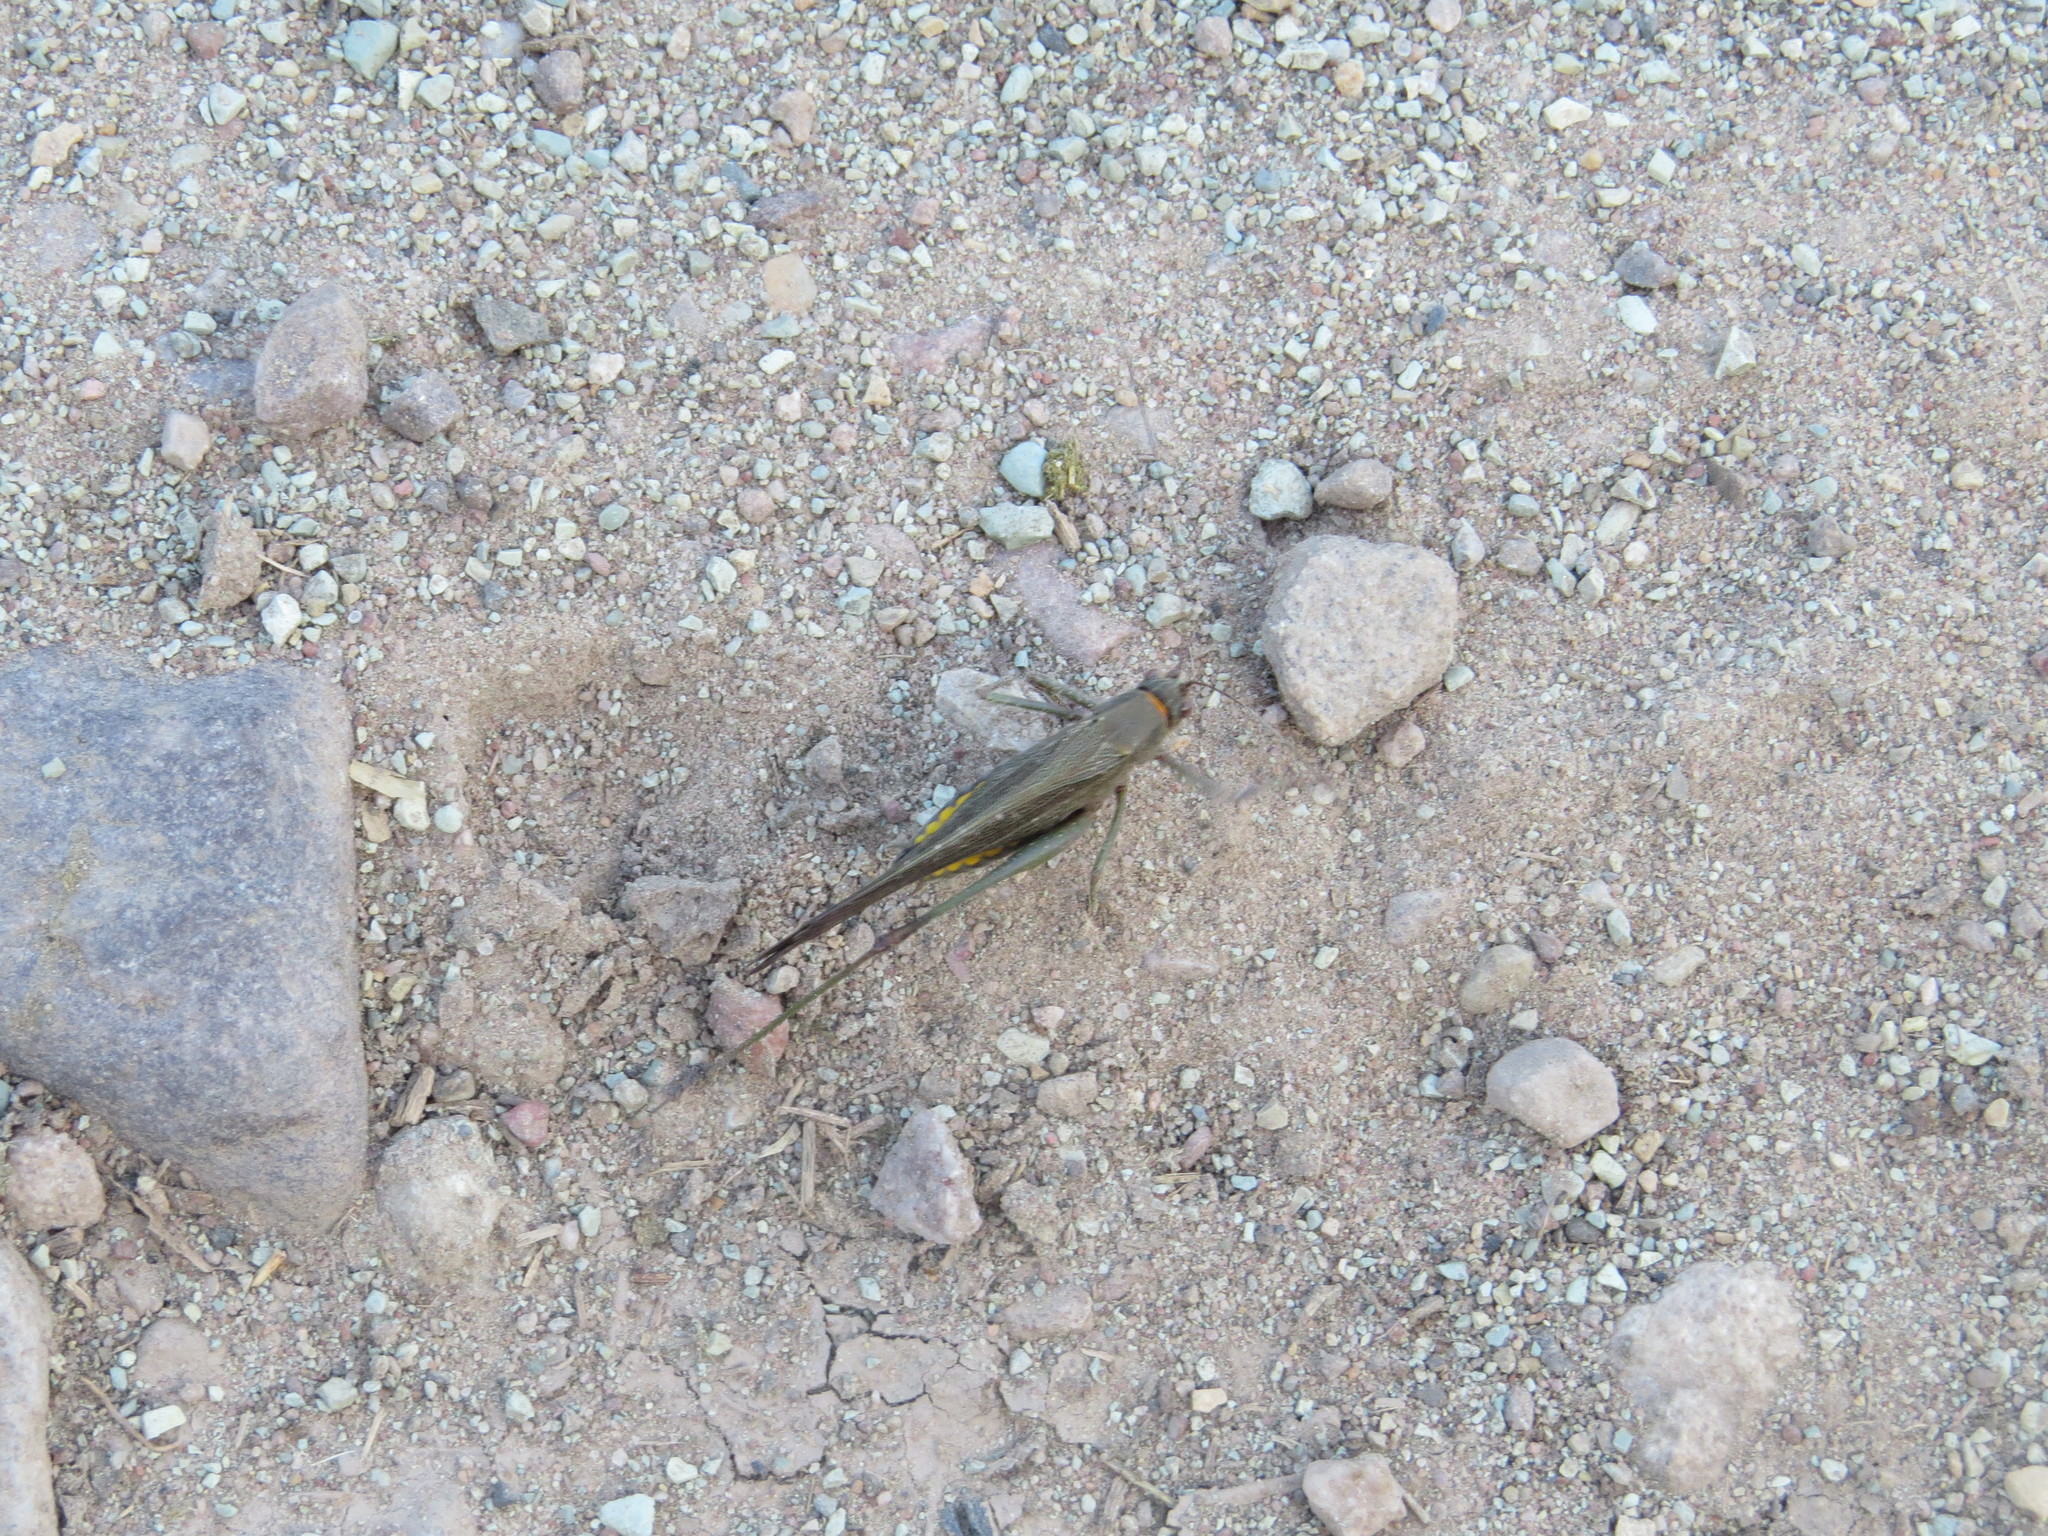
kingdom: Animalia
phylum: Arthropoda
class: Insecta
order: Orthoptera
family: Tettigoniidae
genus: Enthephippion
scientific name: Enthephippion borellii
